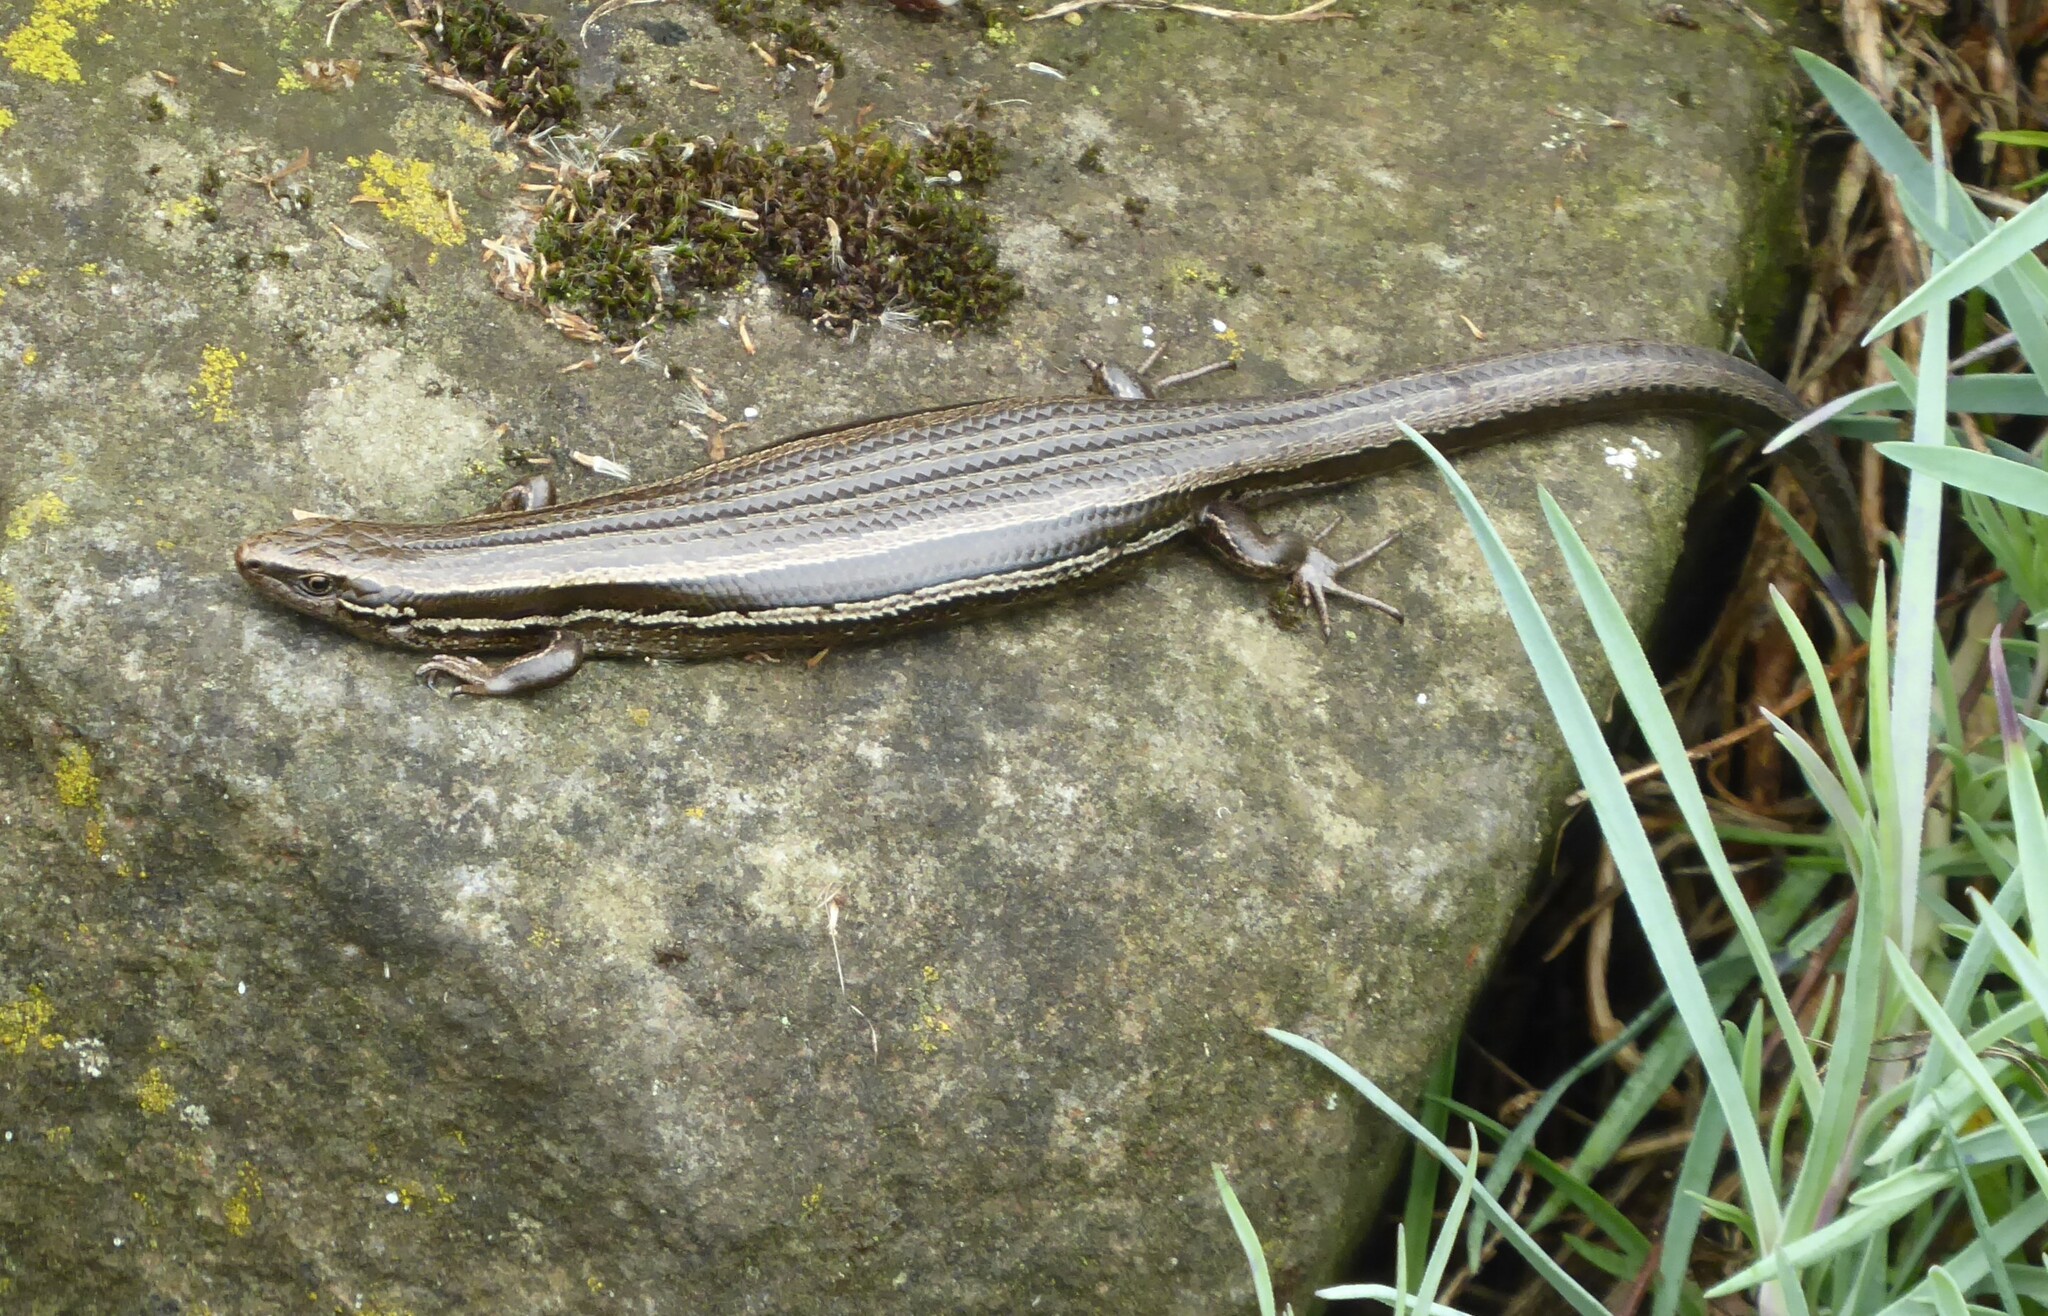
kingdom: Animalia
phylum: Chordata
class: Squamata
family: Scincidae
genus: Oligosoma
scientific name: Oligosoma polychroma
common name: Common new zealand skink
